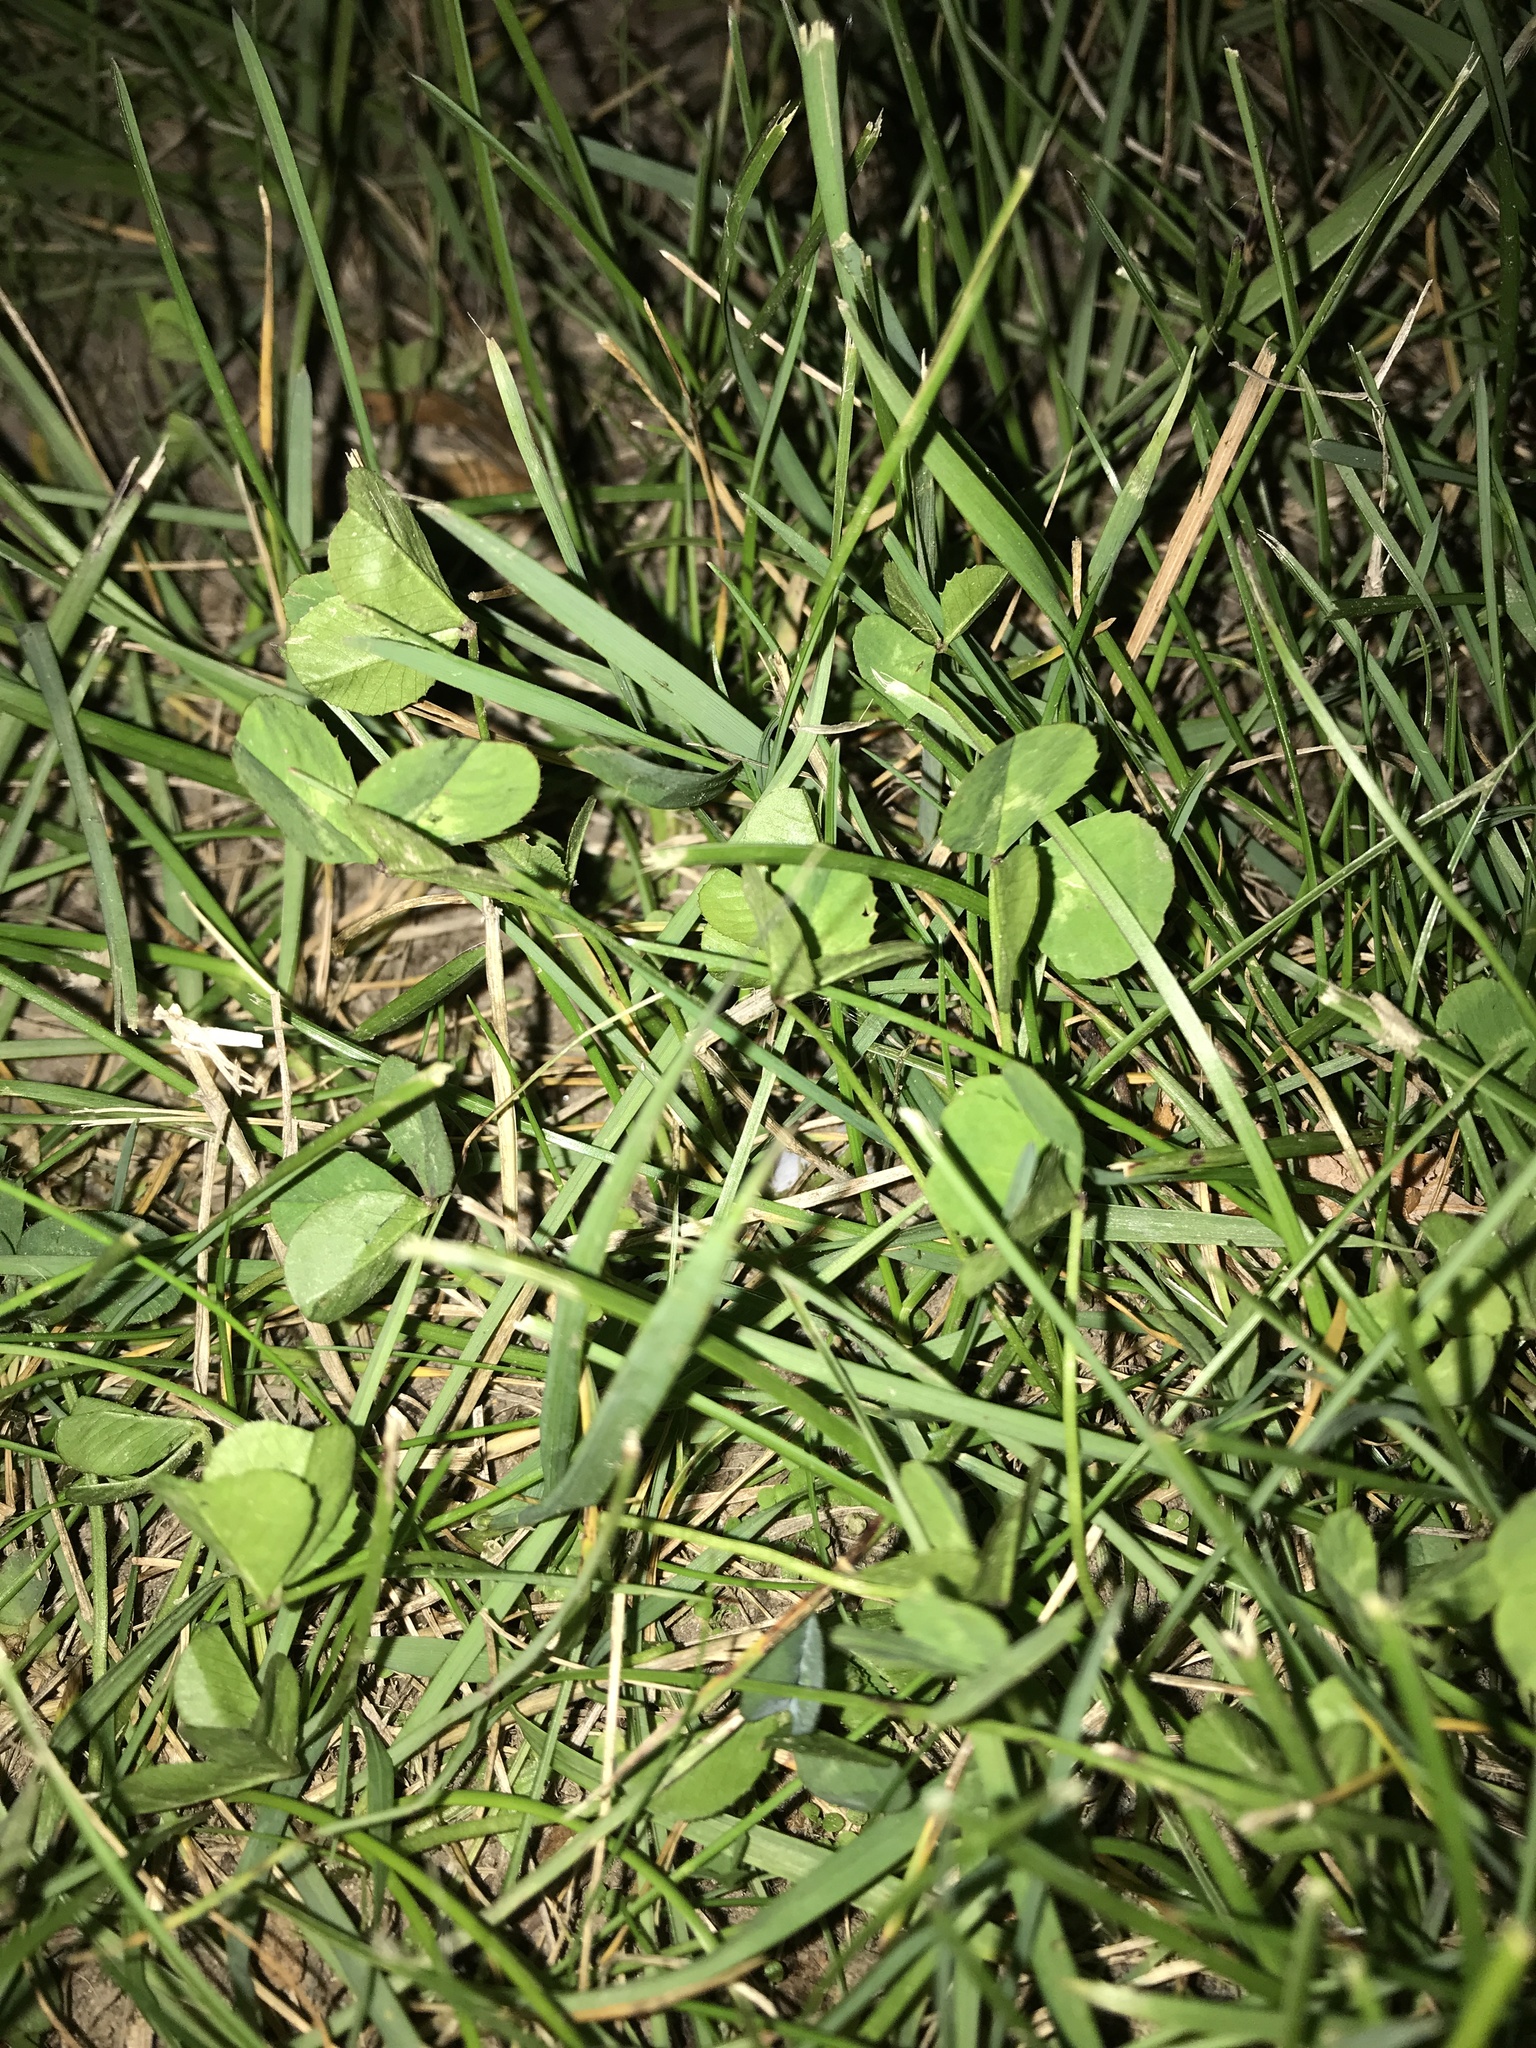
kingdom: Plantae
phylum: Tracheophyta
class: Magnoliopsida
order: Fabales
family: Fabaceae
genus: Trifolium
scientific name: Trifolium repens
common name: White clover
